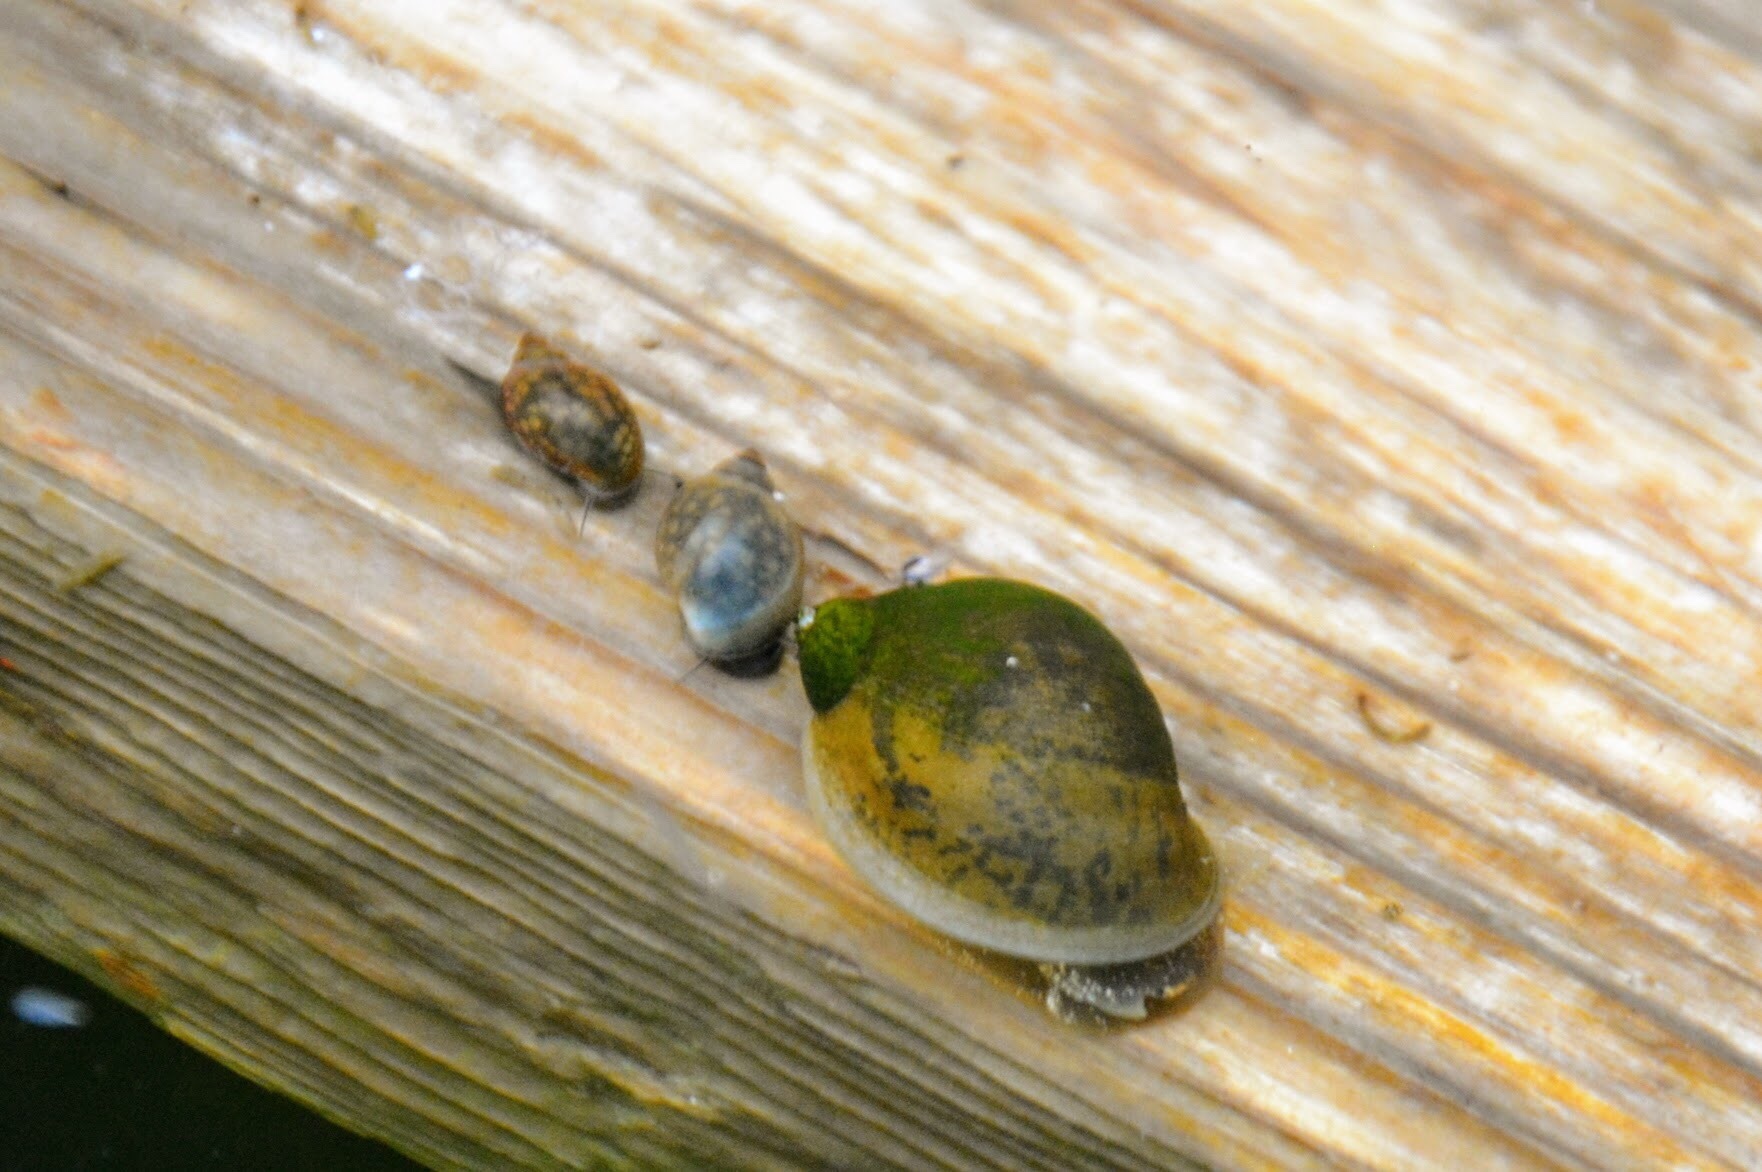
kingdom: Animalia
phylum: Mollusca
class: Gastropoda
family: Lymnaeidae
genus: Ampullaceana
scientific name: Ampullaceana balthica
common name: Wandering pond snail
